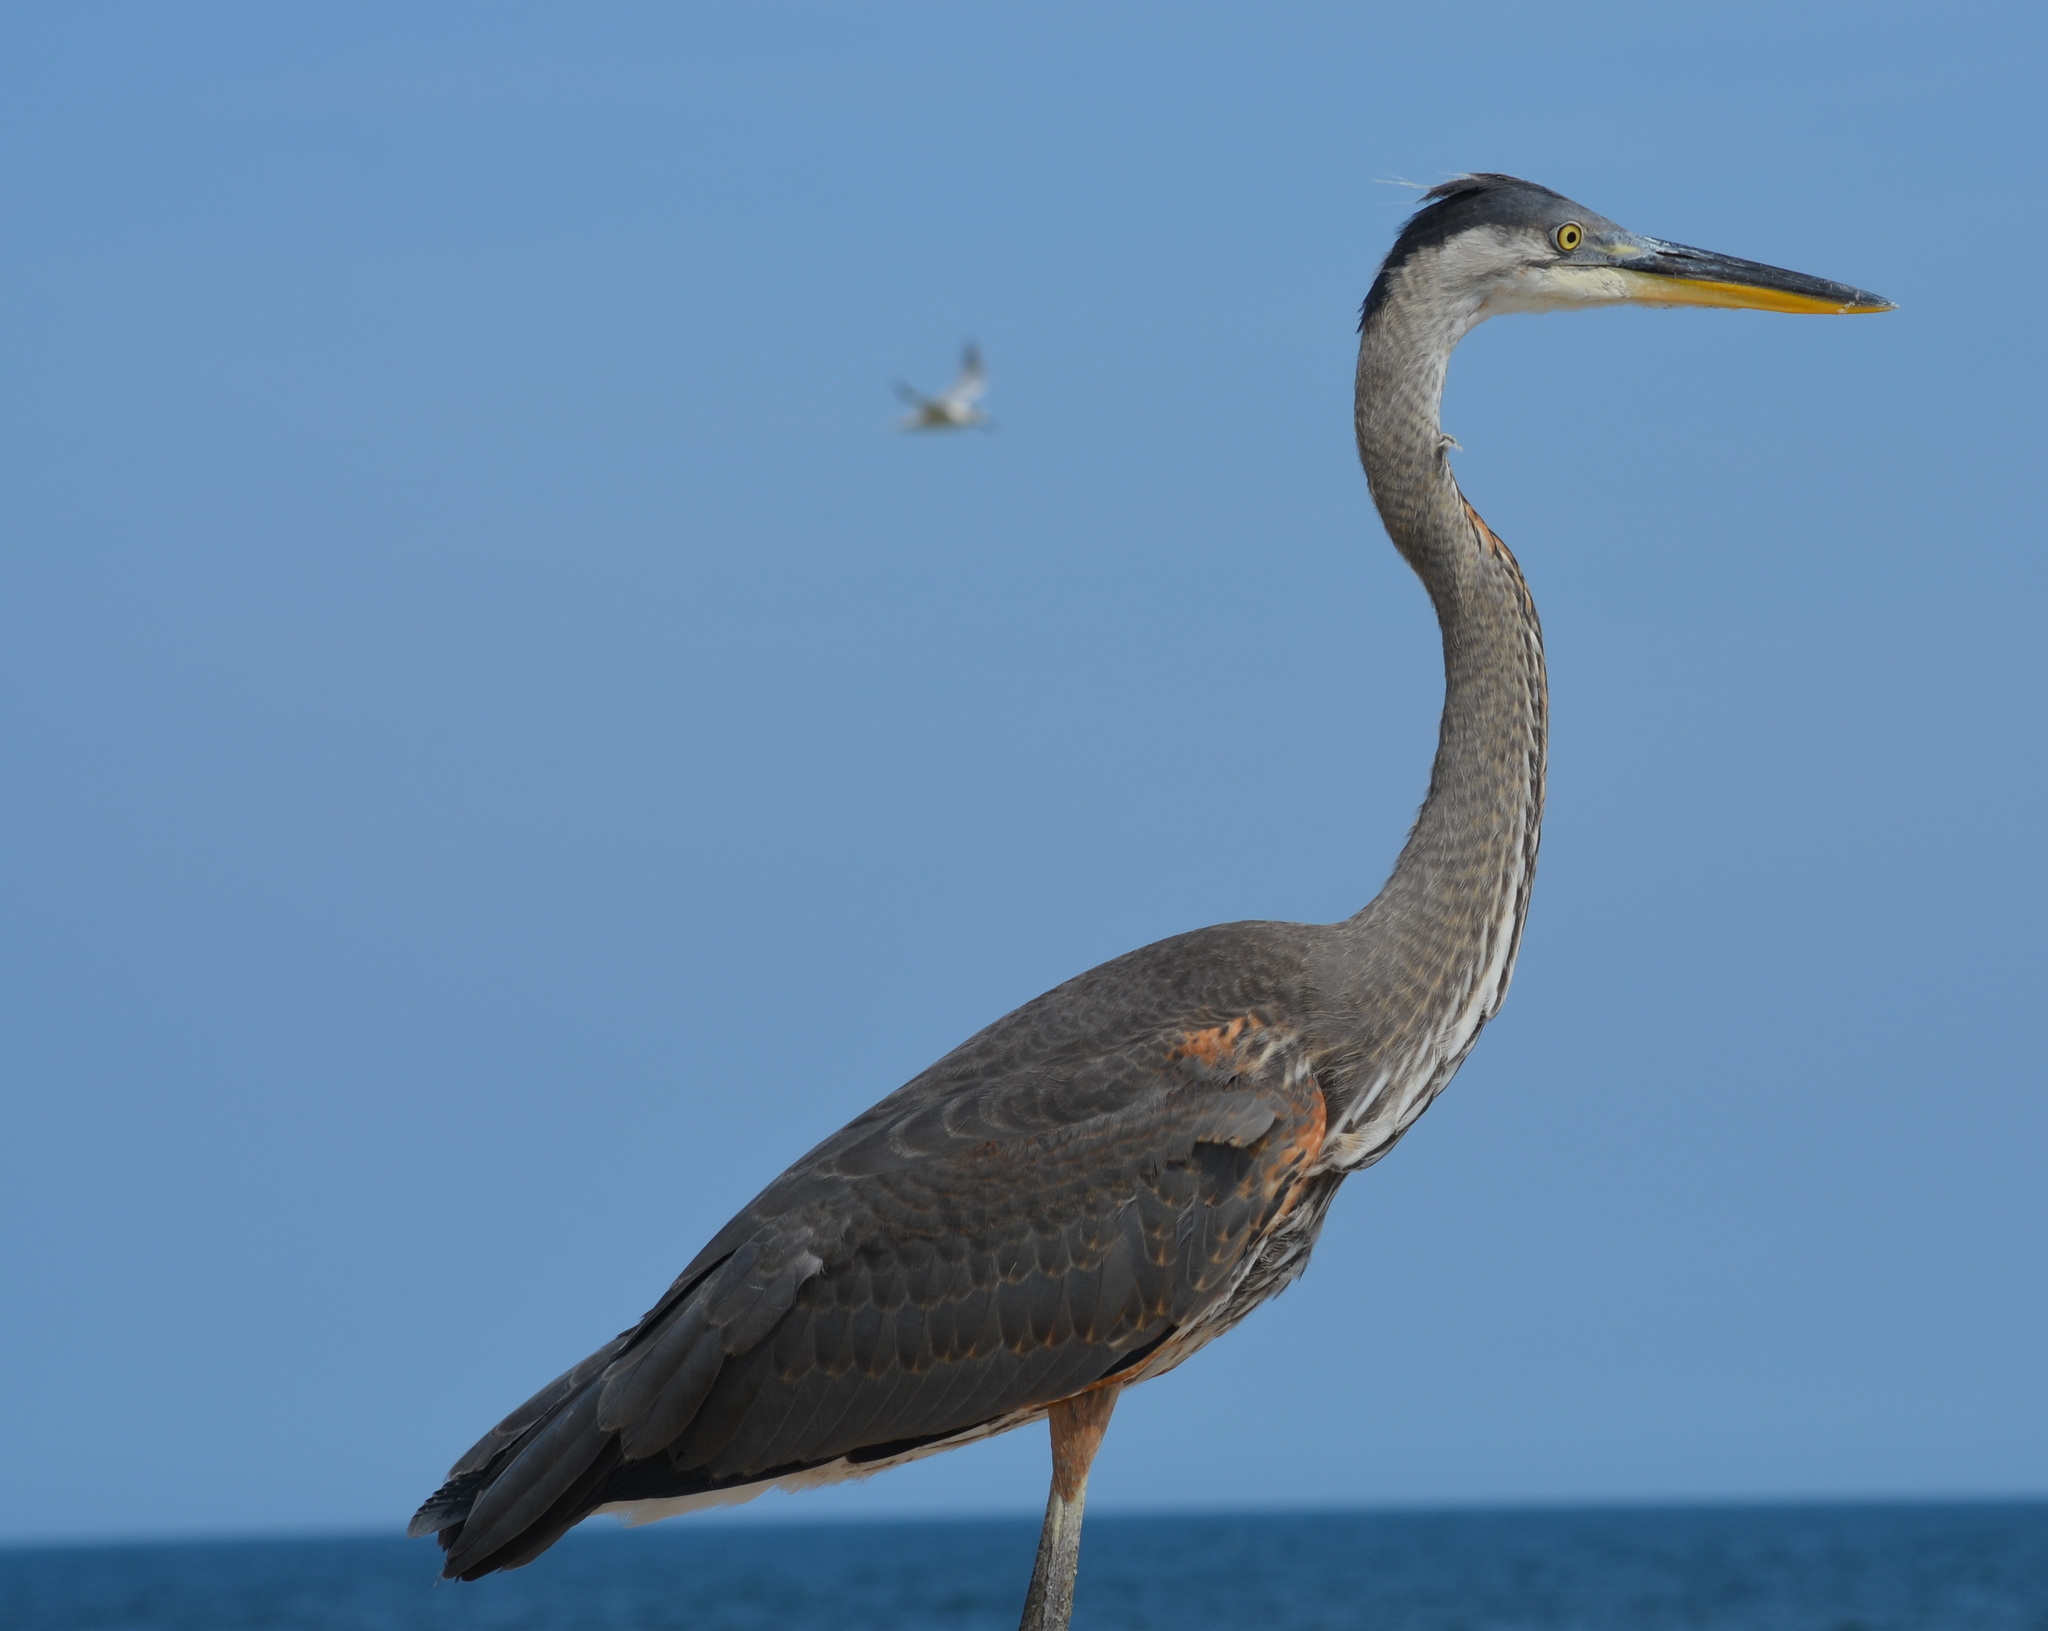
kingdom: Animalia
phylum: Chordata
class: Aves
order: Pelecaniformes
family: Ardeidae
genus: Ardea
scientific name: Ardea herodias
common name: Great blue heron
